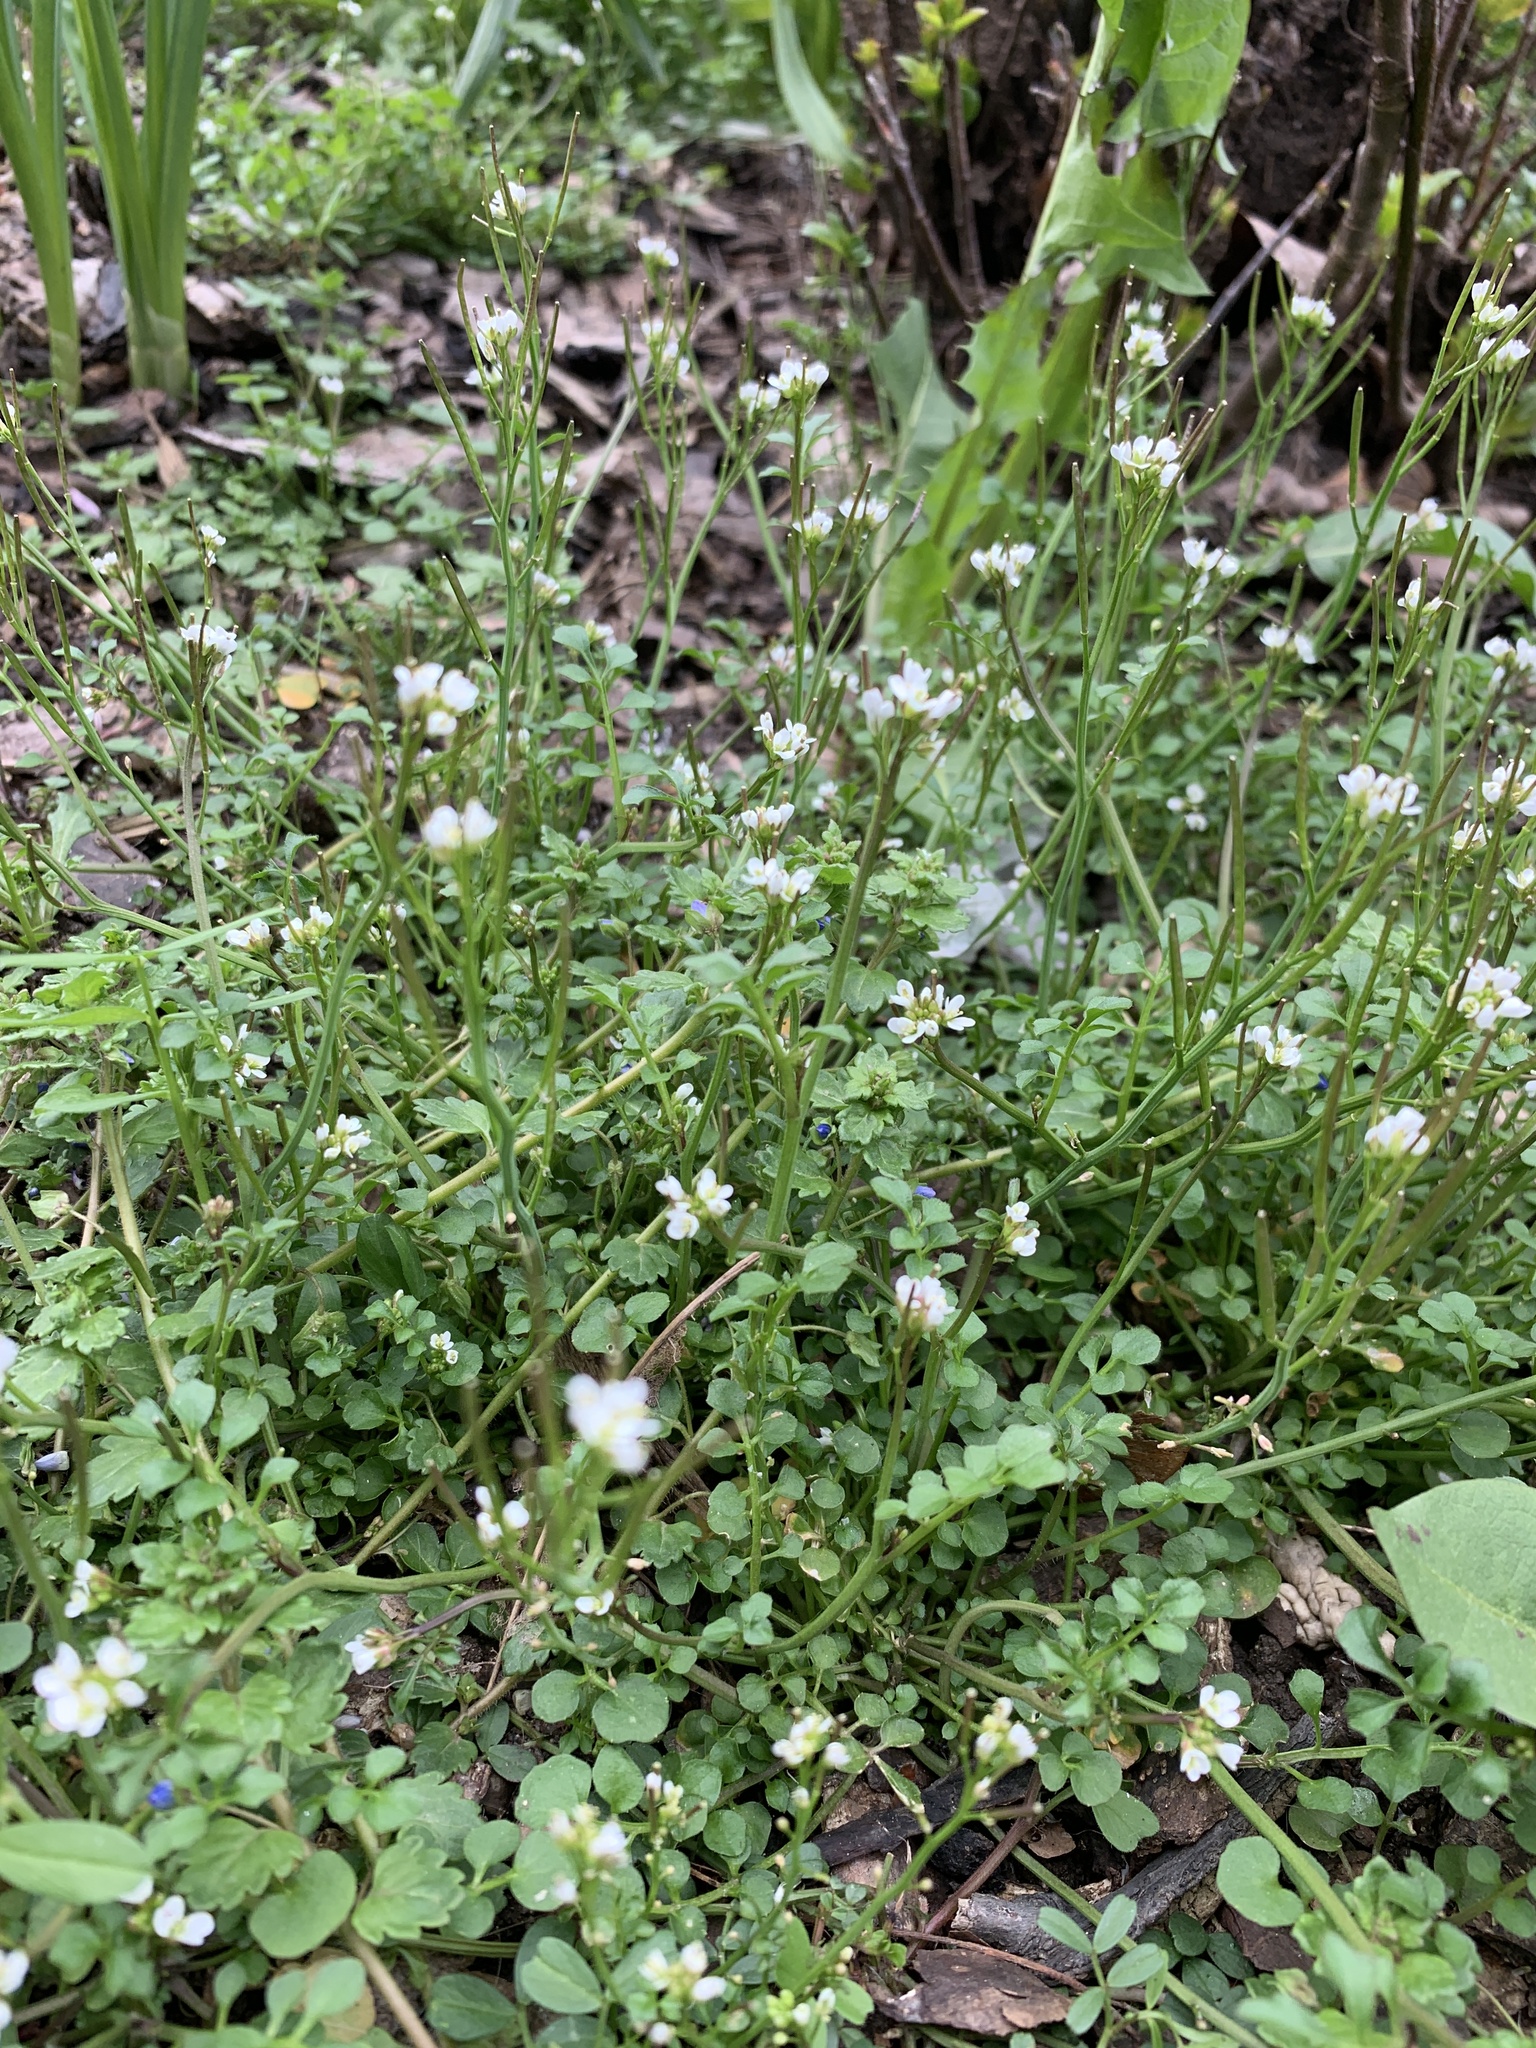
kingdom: Plantae
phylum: Tracheophyta
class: Magnoliopsida
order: Brassicales
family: Brassicaceae
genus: Cardamine
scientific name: Cardamine hirsuta
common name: Hairy bittercress
